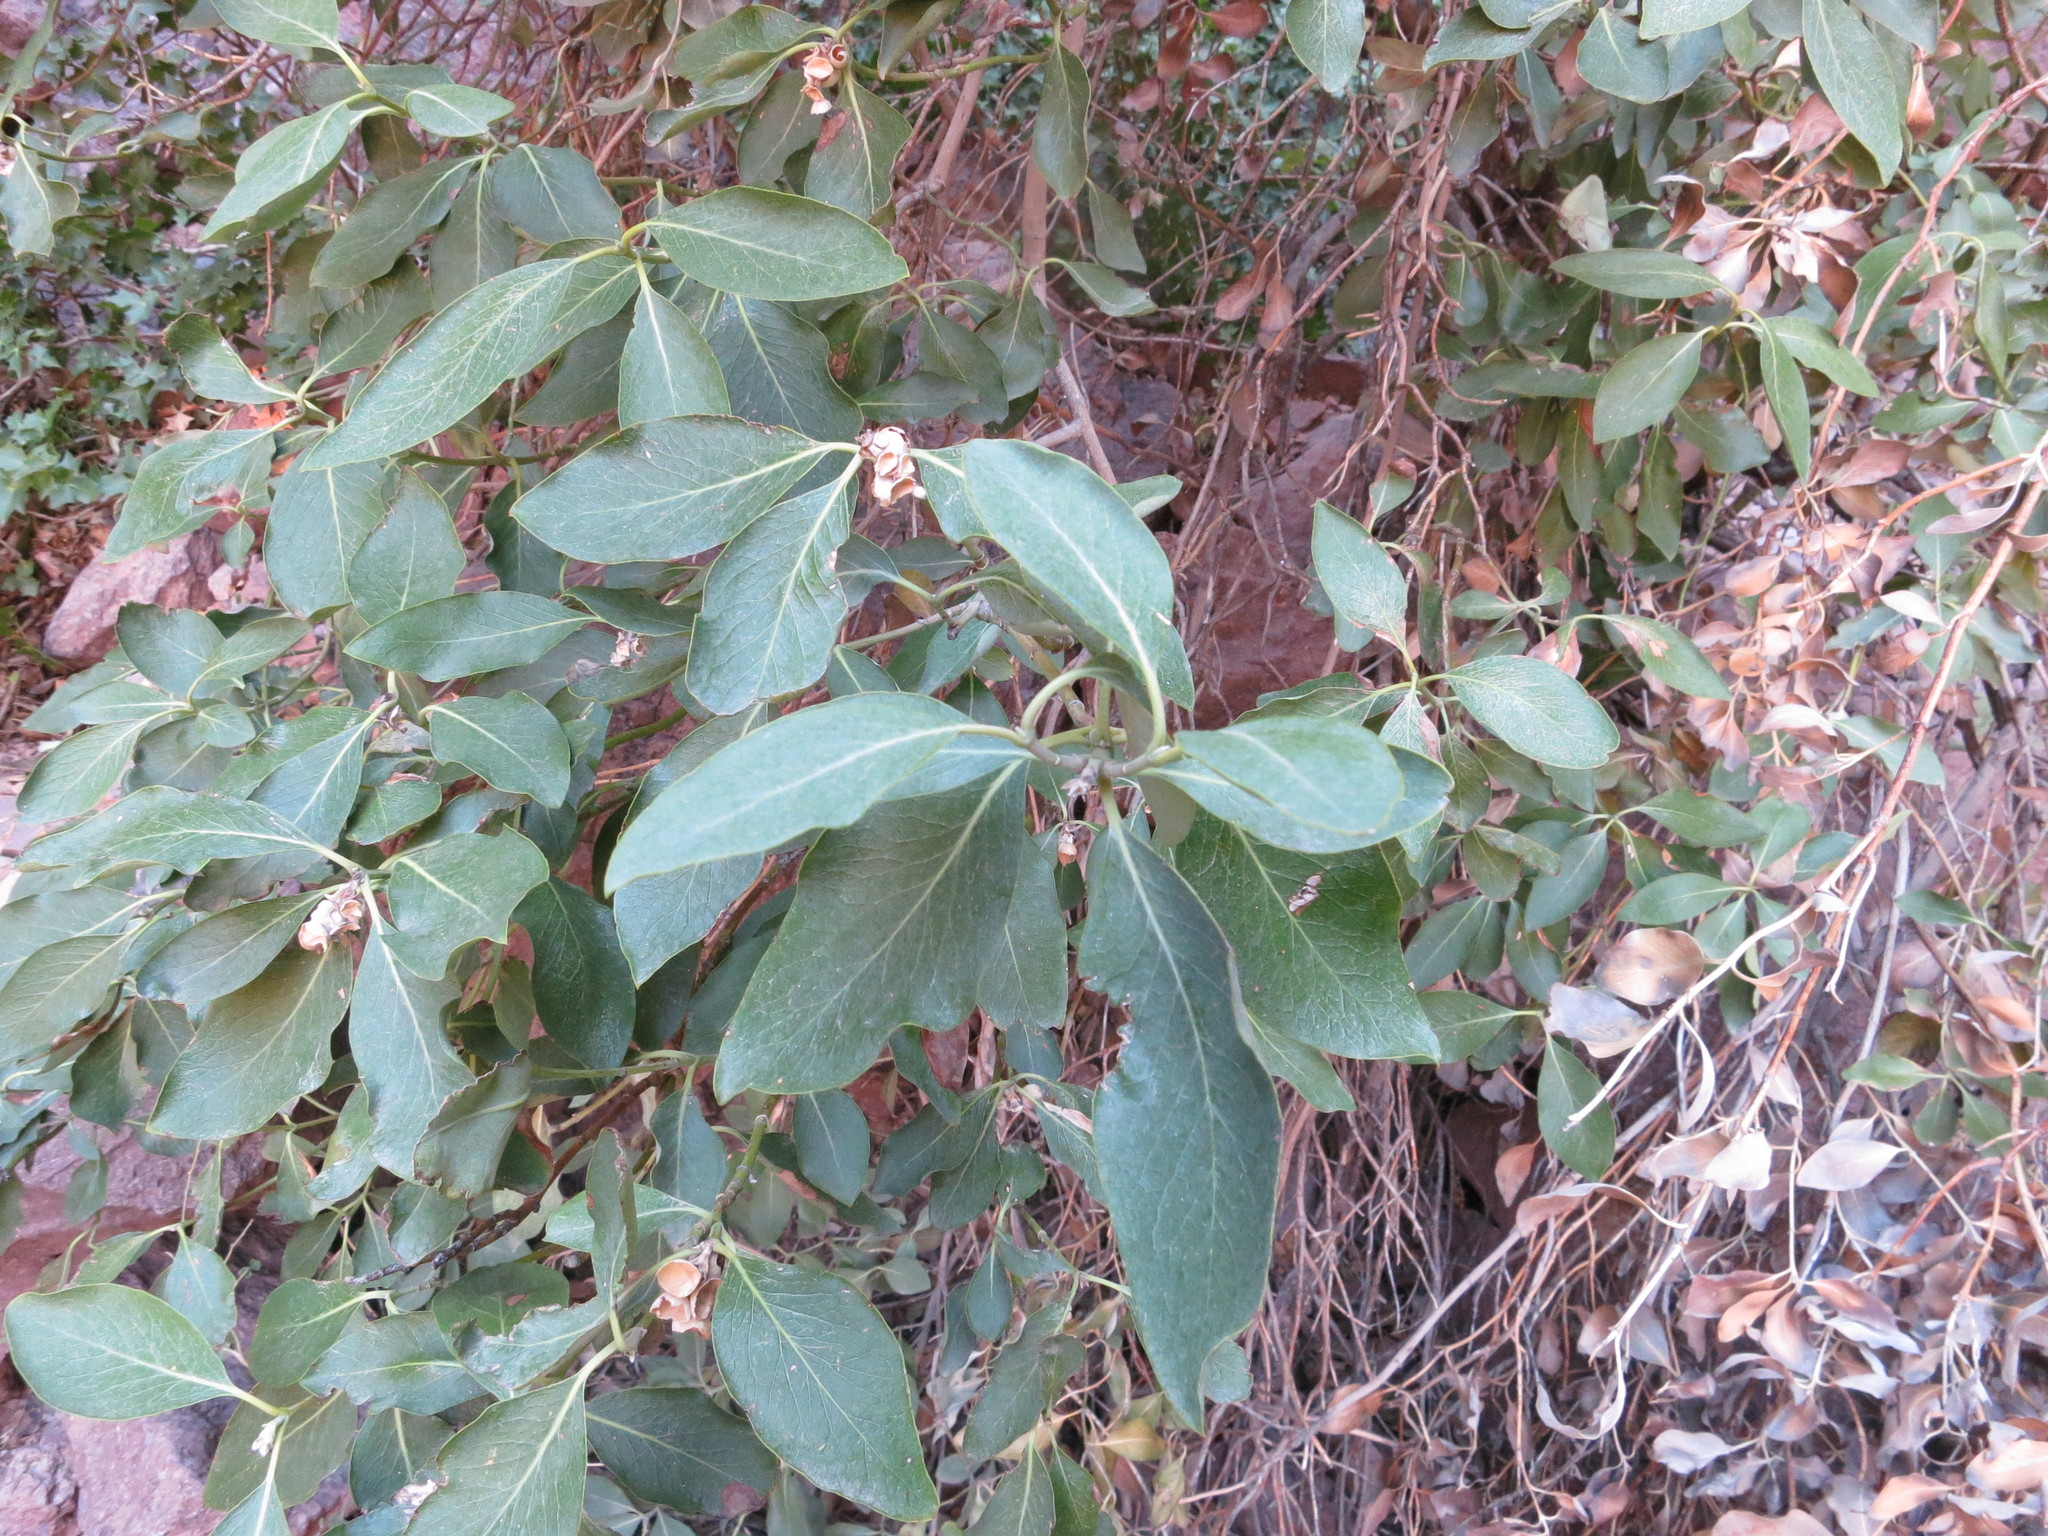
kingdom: Plantae
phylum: Tracheophyta
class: Magnoliopsida
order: Garryales
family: Garryaceae
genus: Garrya
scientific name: Garrya flavescens
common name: Ashy silk-tassel
